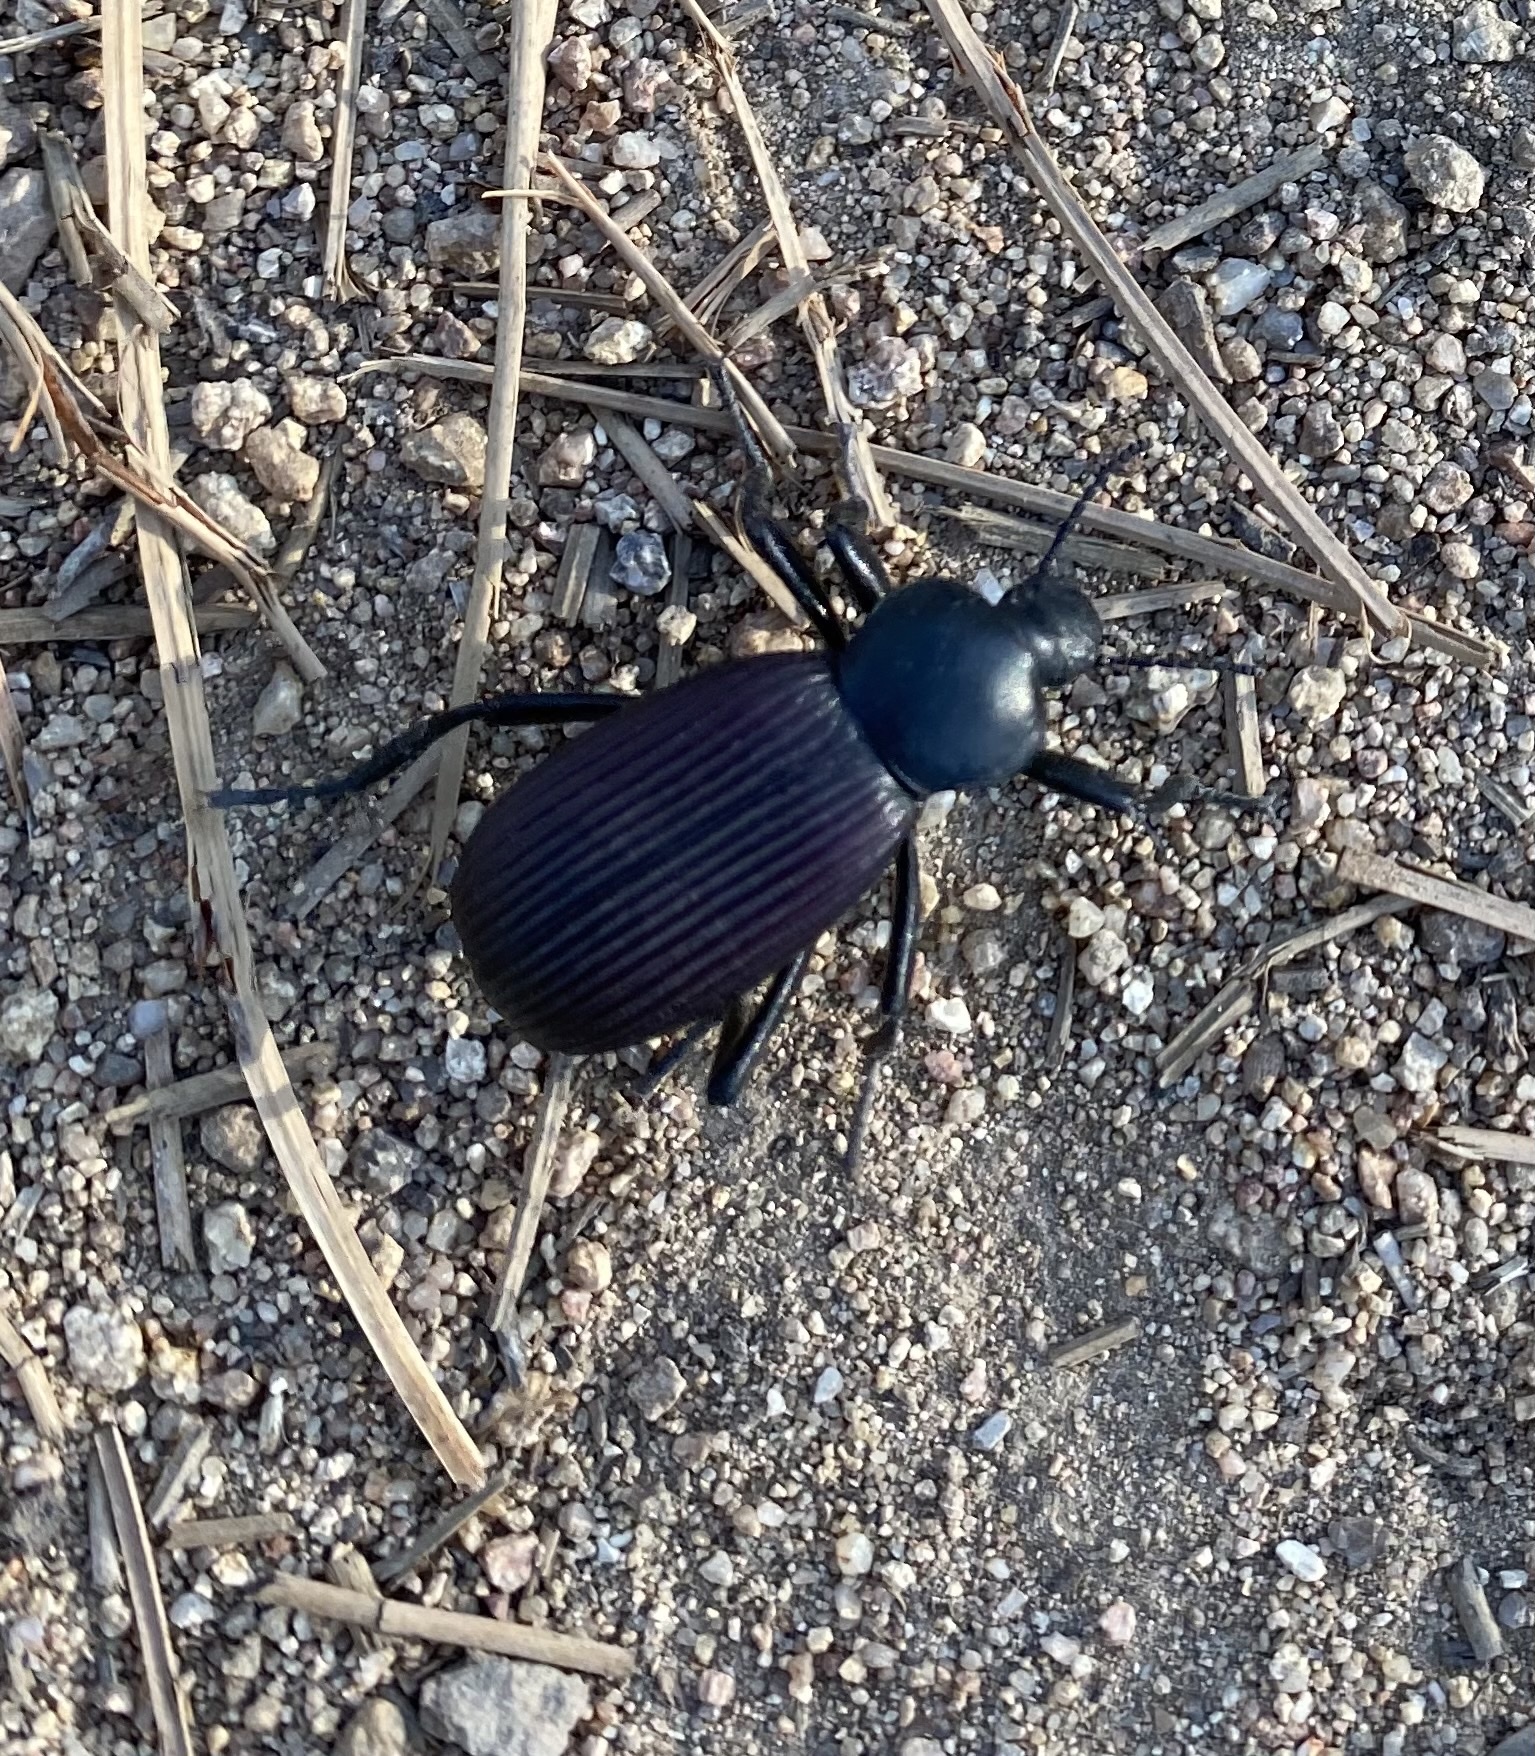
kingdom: Animalia
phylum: Arthropoda
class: Insecta
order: Coleoptera
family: Tenebrionidae
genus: Eleodes
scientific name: Eleodes obscura
